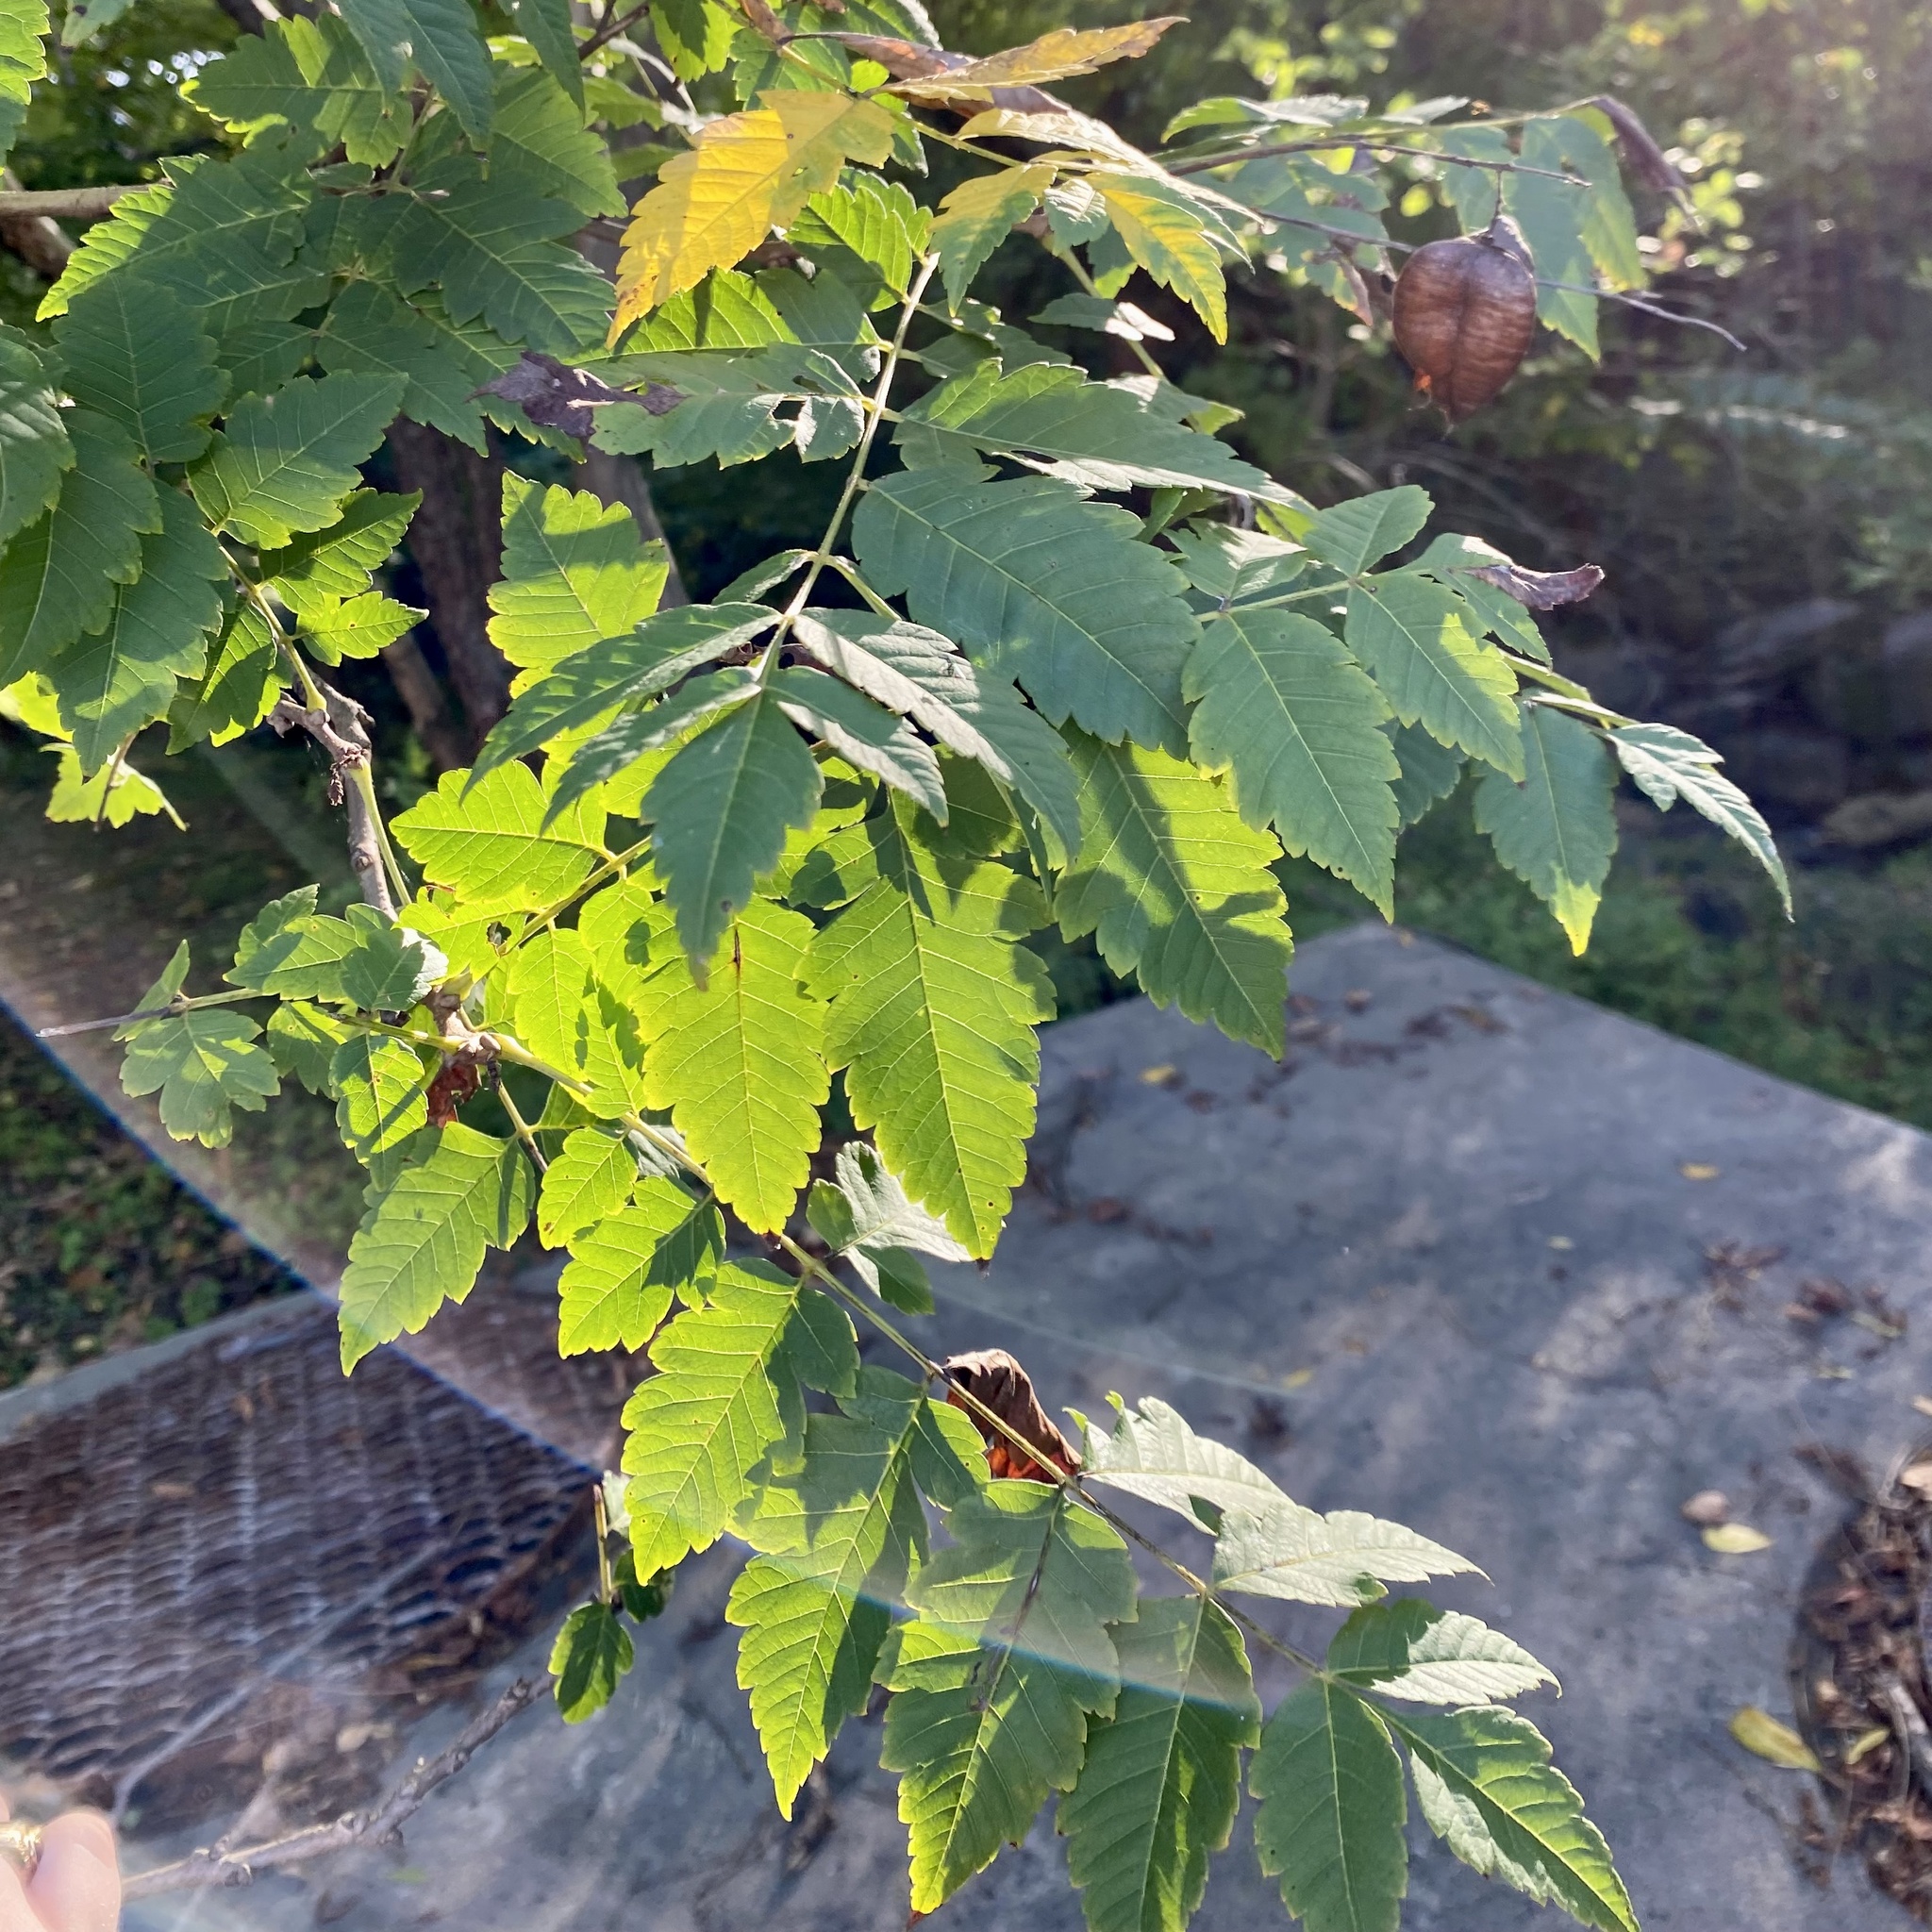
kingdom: Plantae
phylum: Tracheophyta
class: Magnoliopsida
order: Sapindales
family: Sapindaceae
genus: Koelreuteria
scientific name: Koelreuteria paniculata
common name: Pride-of-india
